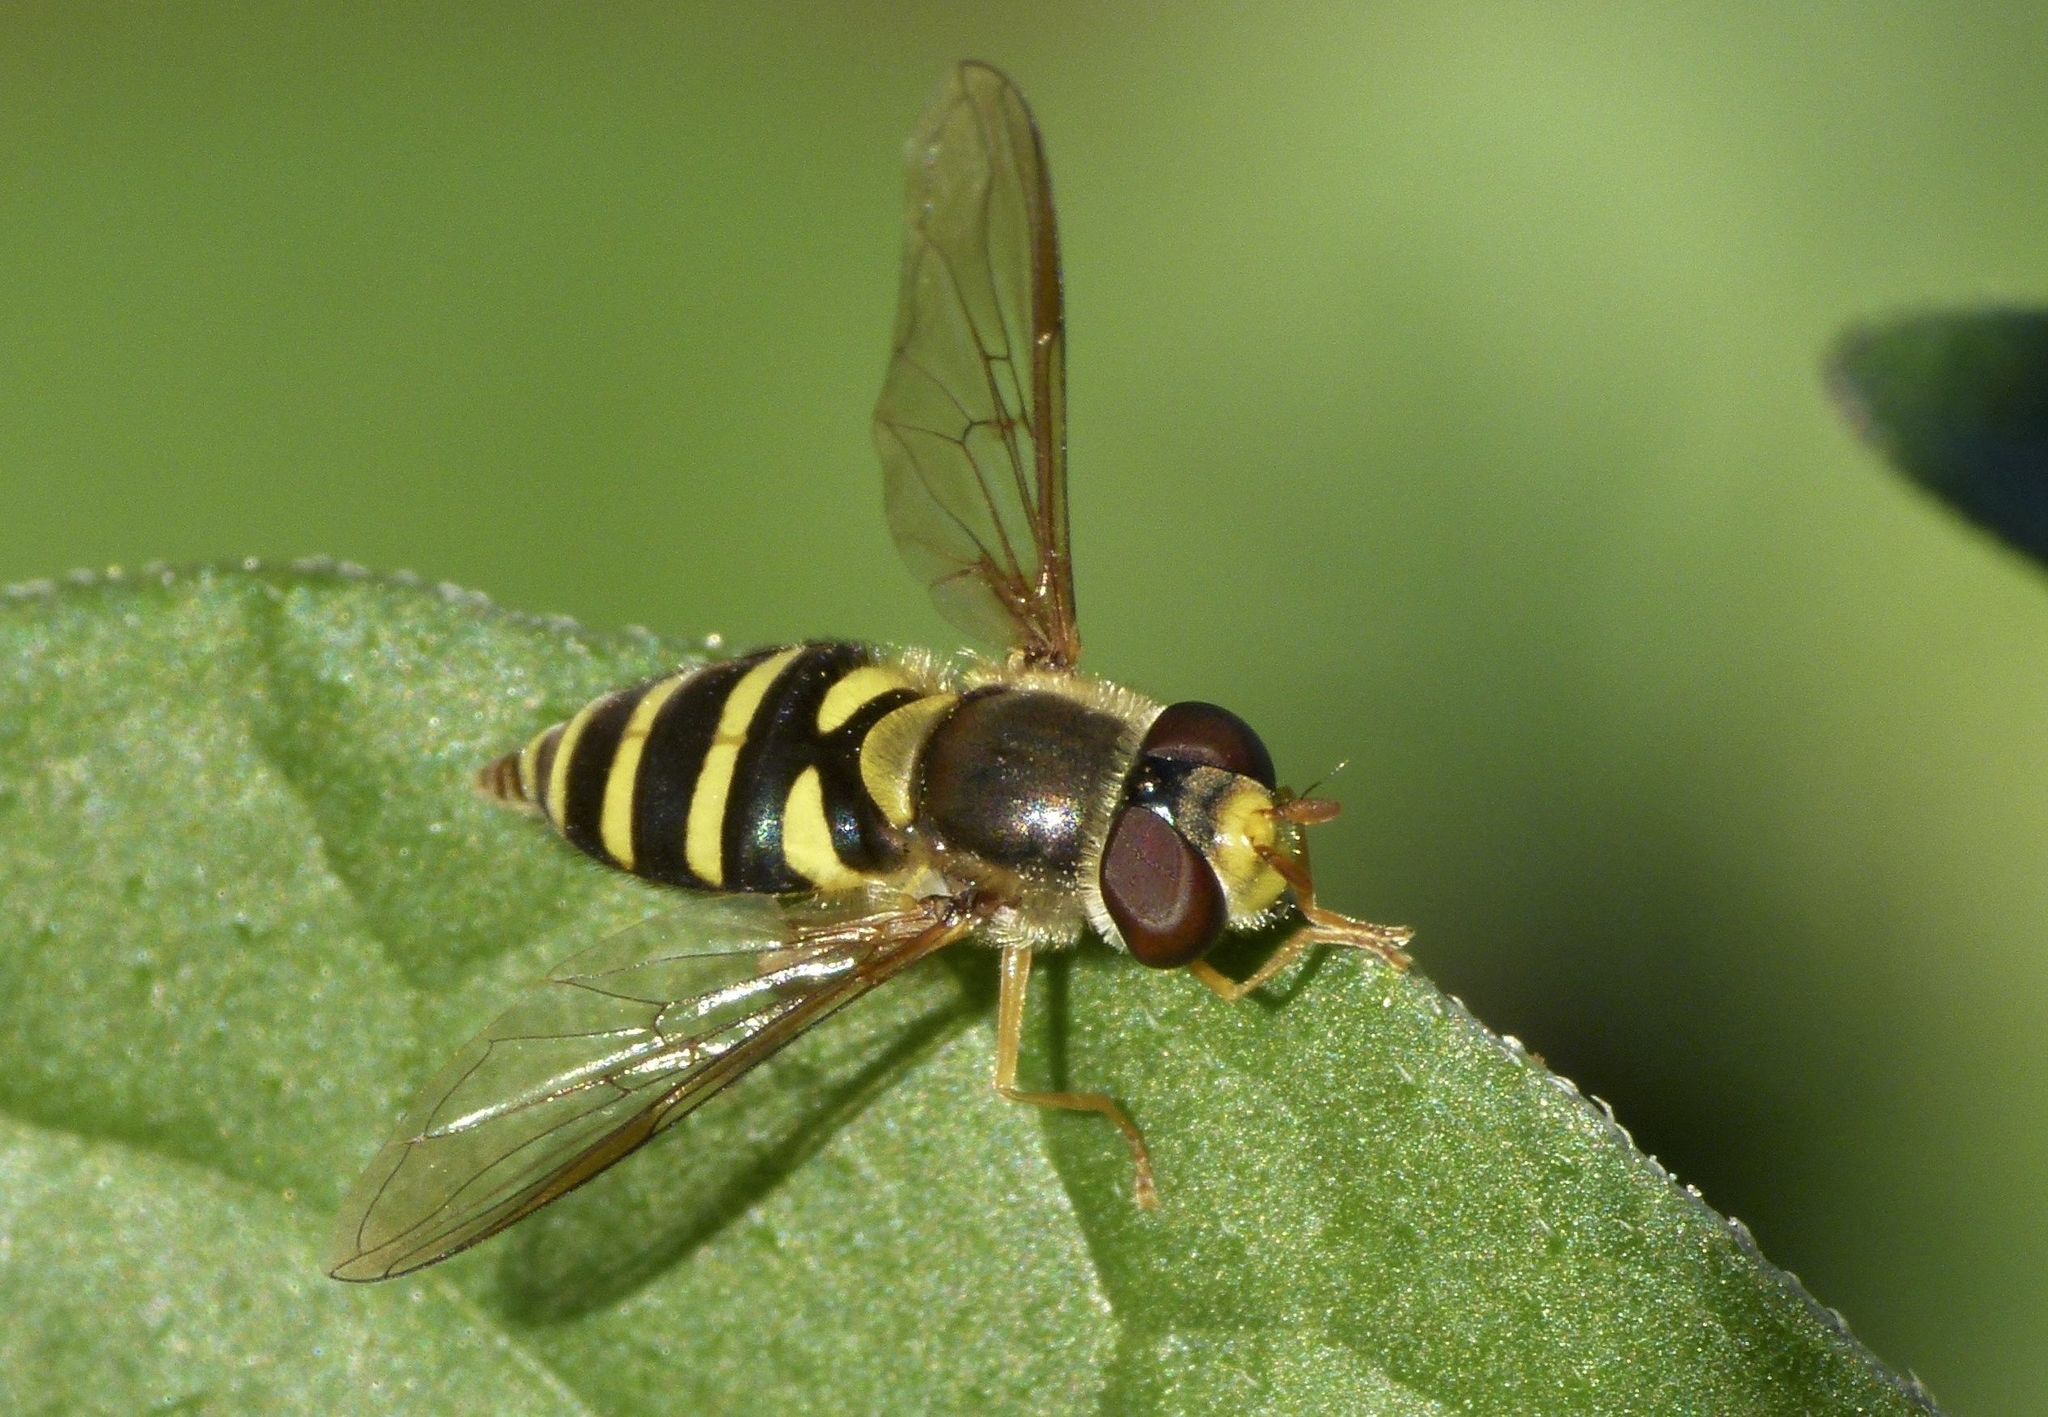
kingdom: Animalia
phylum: Arthropoda
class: Insecta
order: Diptera
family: Syrphidae
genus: Syrphus
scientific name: Syrphus opinator
